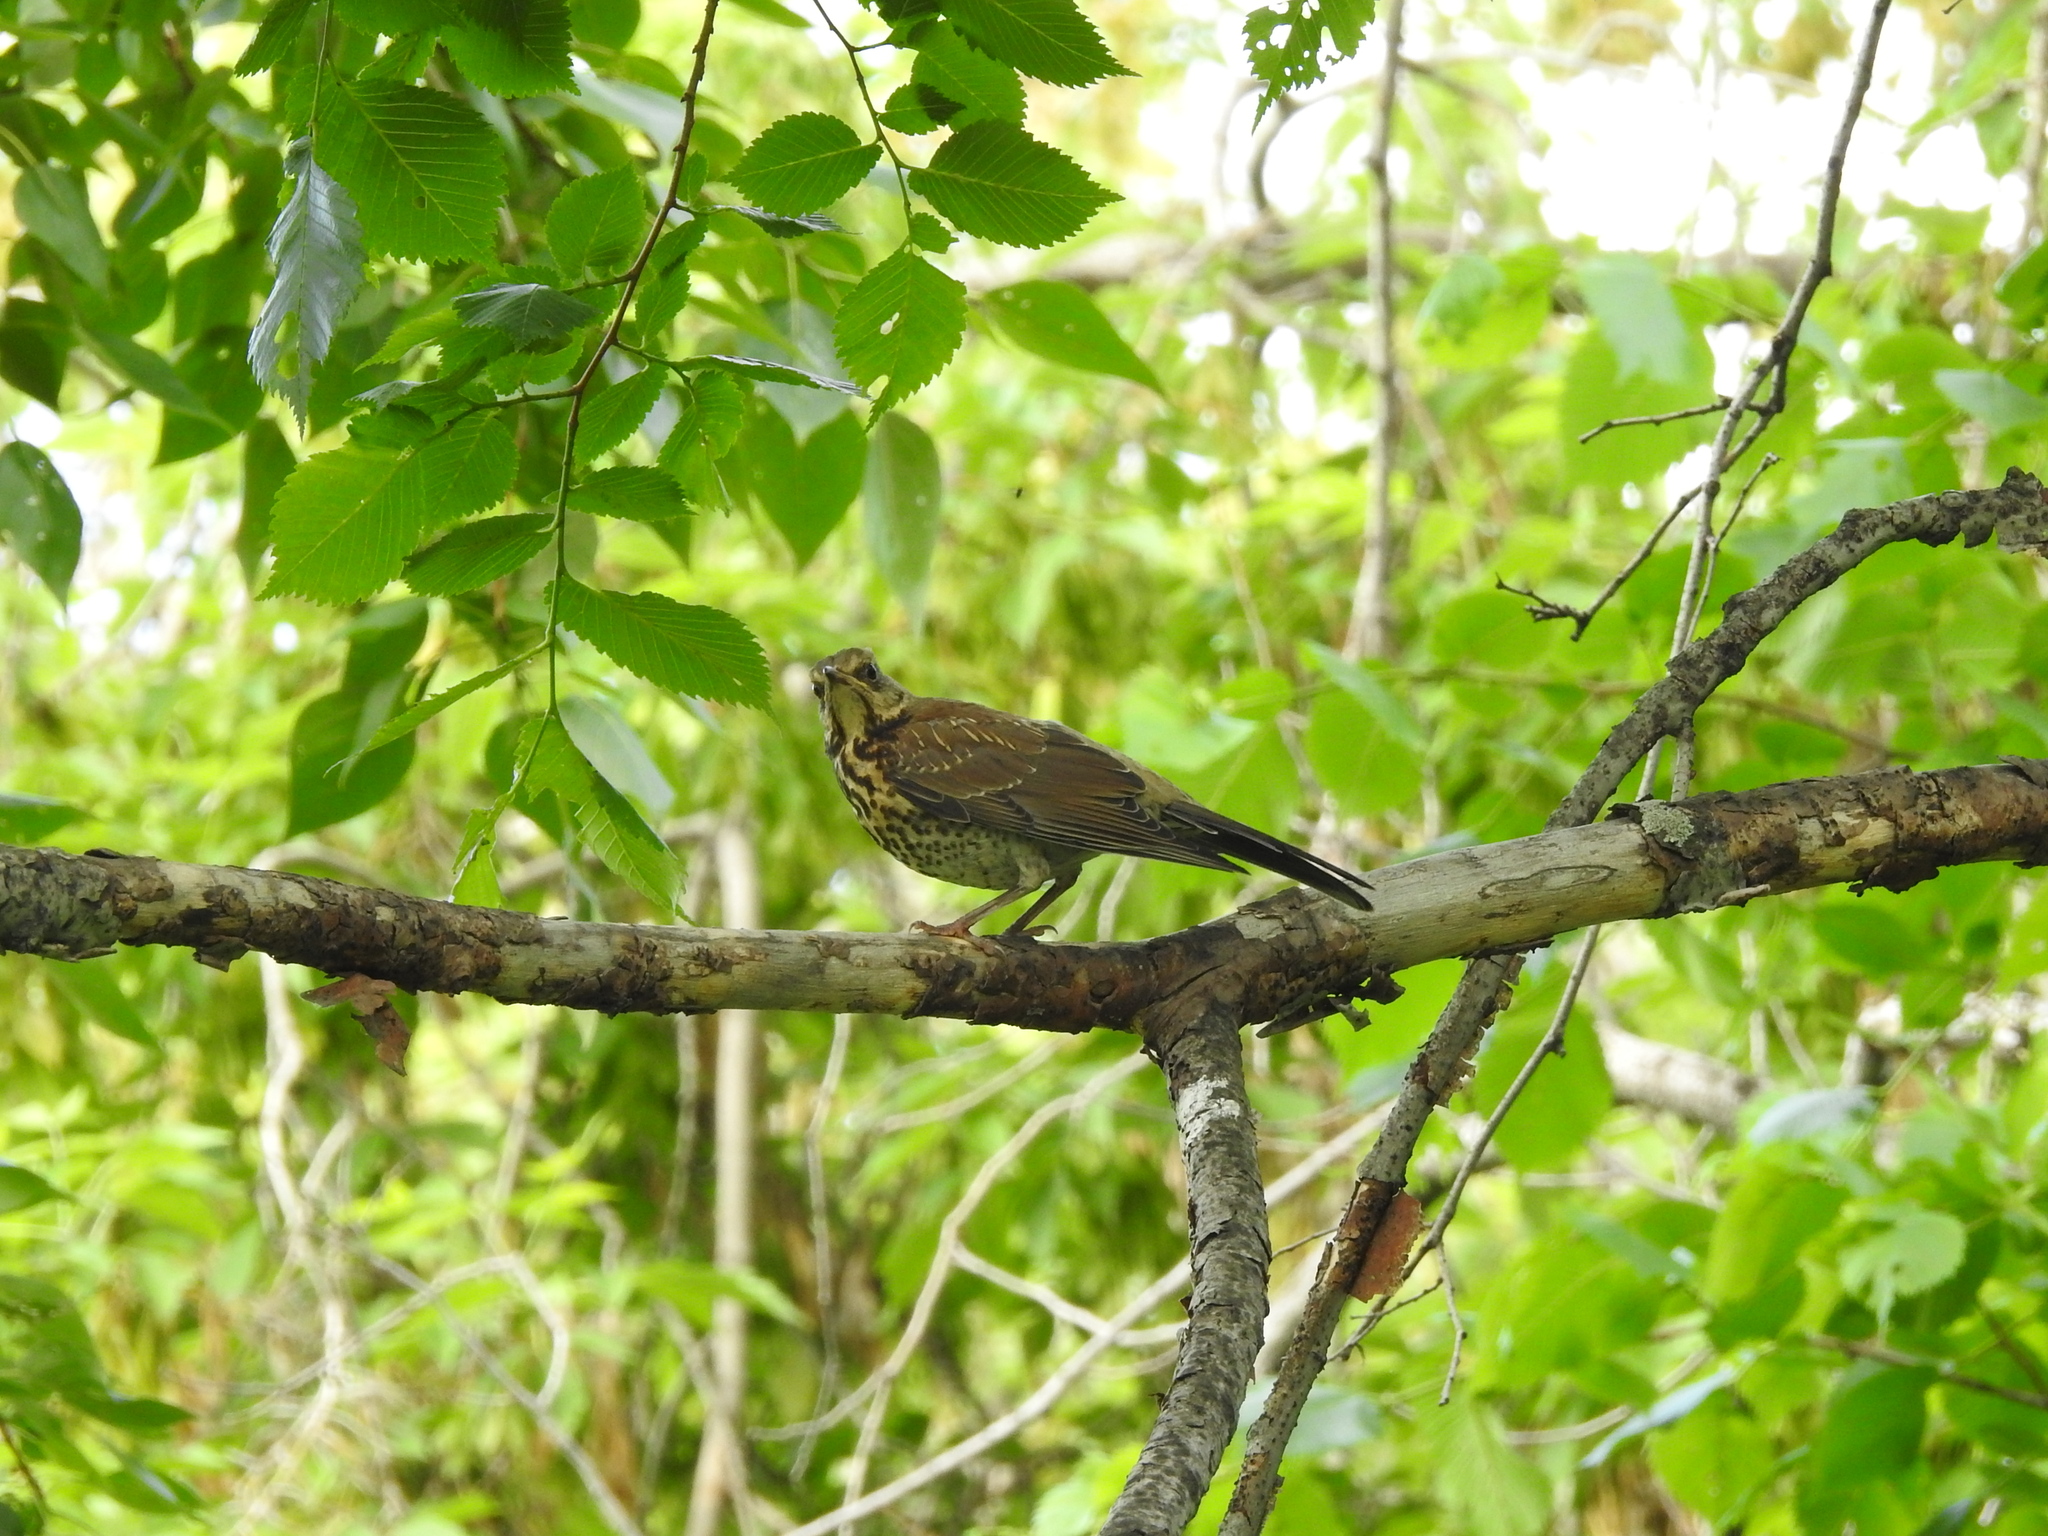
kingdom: Animalia
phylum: Chordata
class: Aves
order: Passeriformes
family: Turdidae
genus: Turdus
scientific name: Turdus pilaris
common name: Fieldfare
